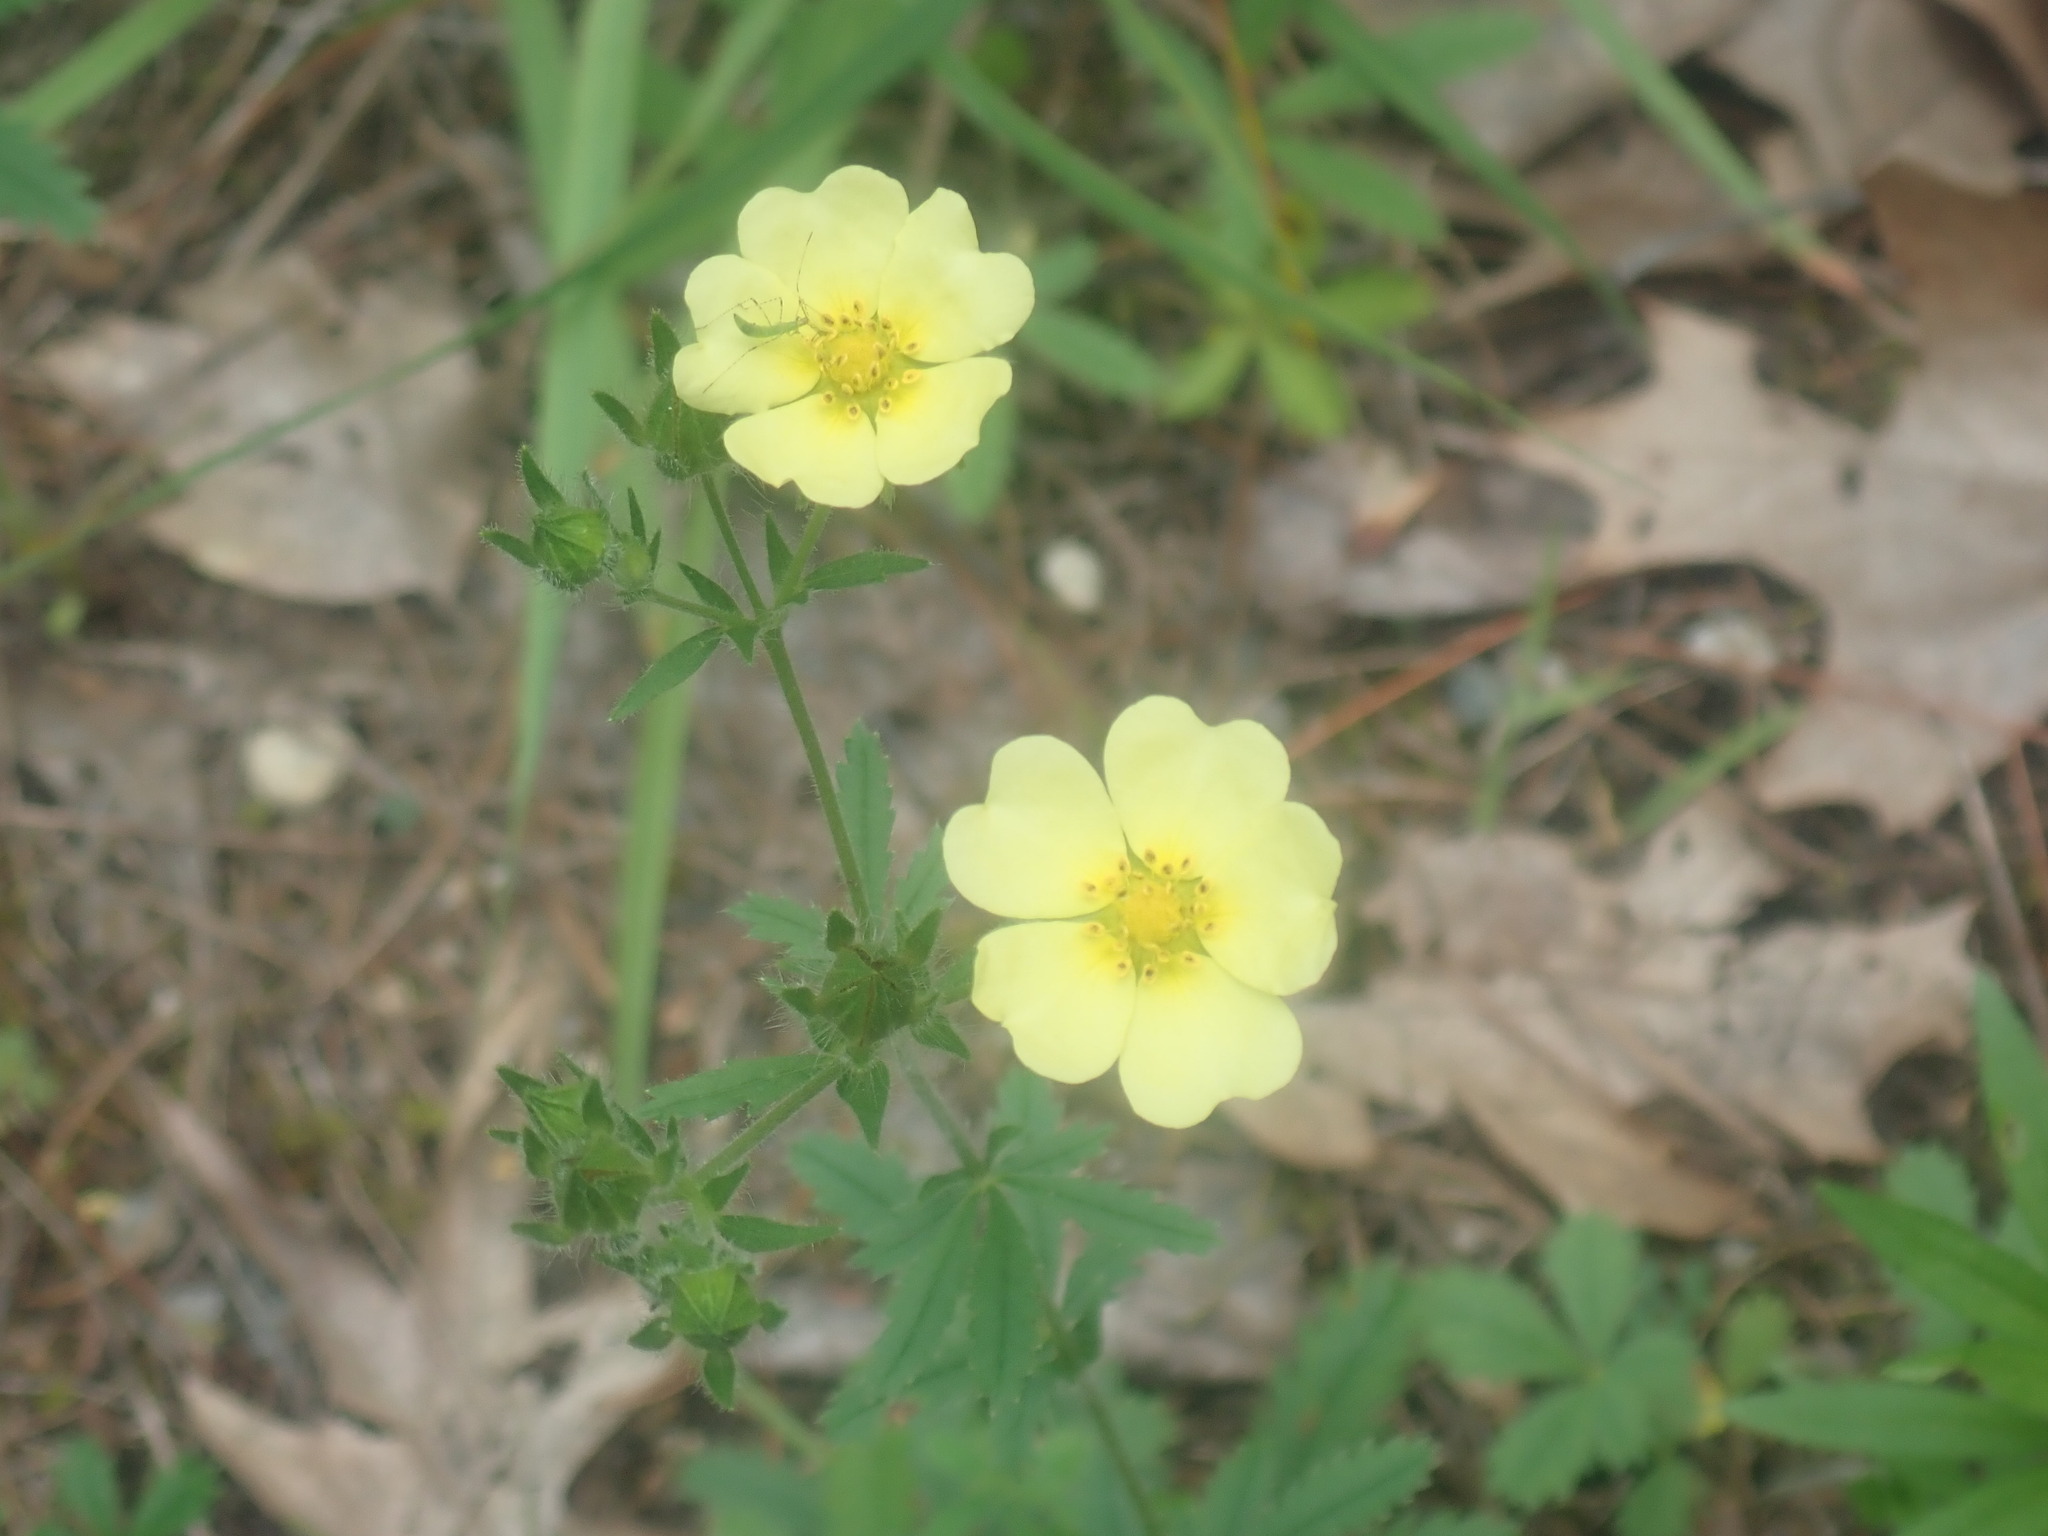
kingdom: Plantae
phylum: Tracheophyta
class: Magnoliopsida
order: Rosales
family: Rosaceae
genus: Potentilla
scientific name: Potentilla recta
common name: Sulphur cinquefoil
